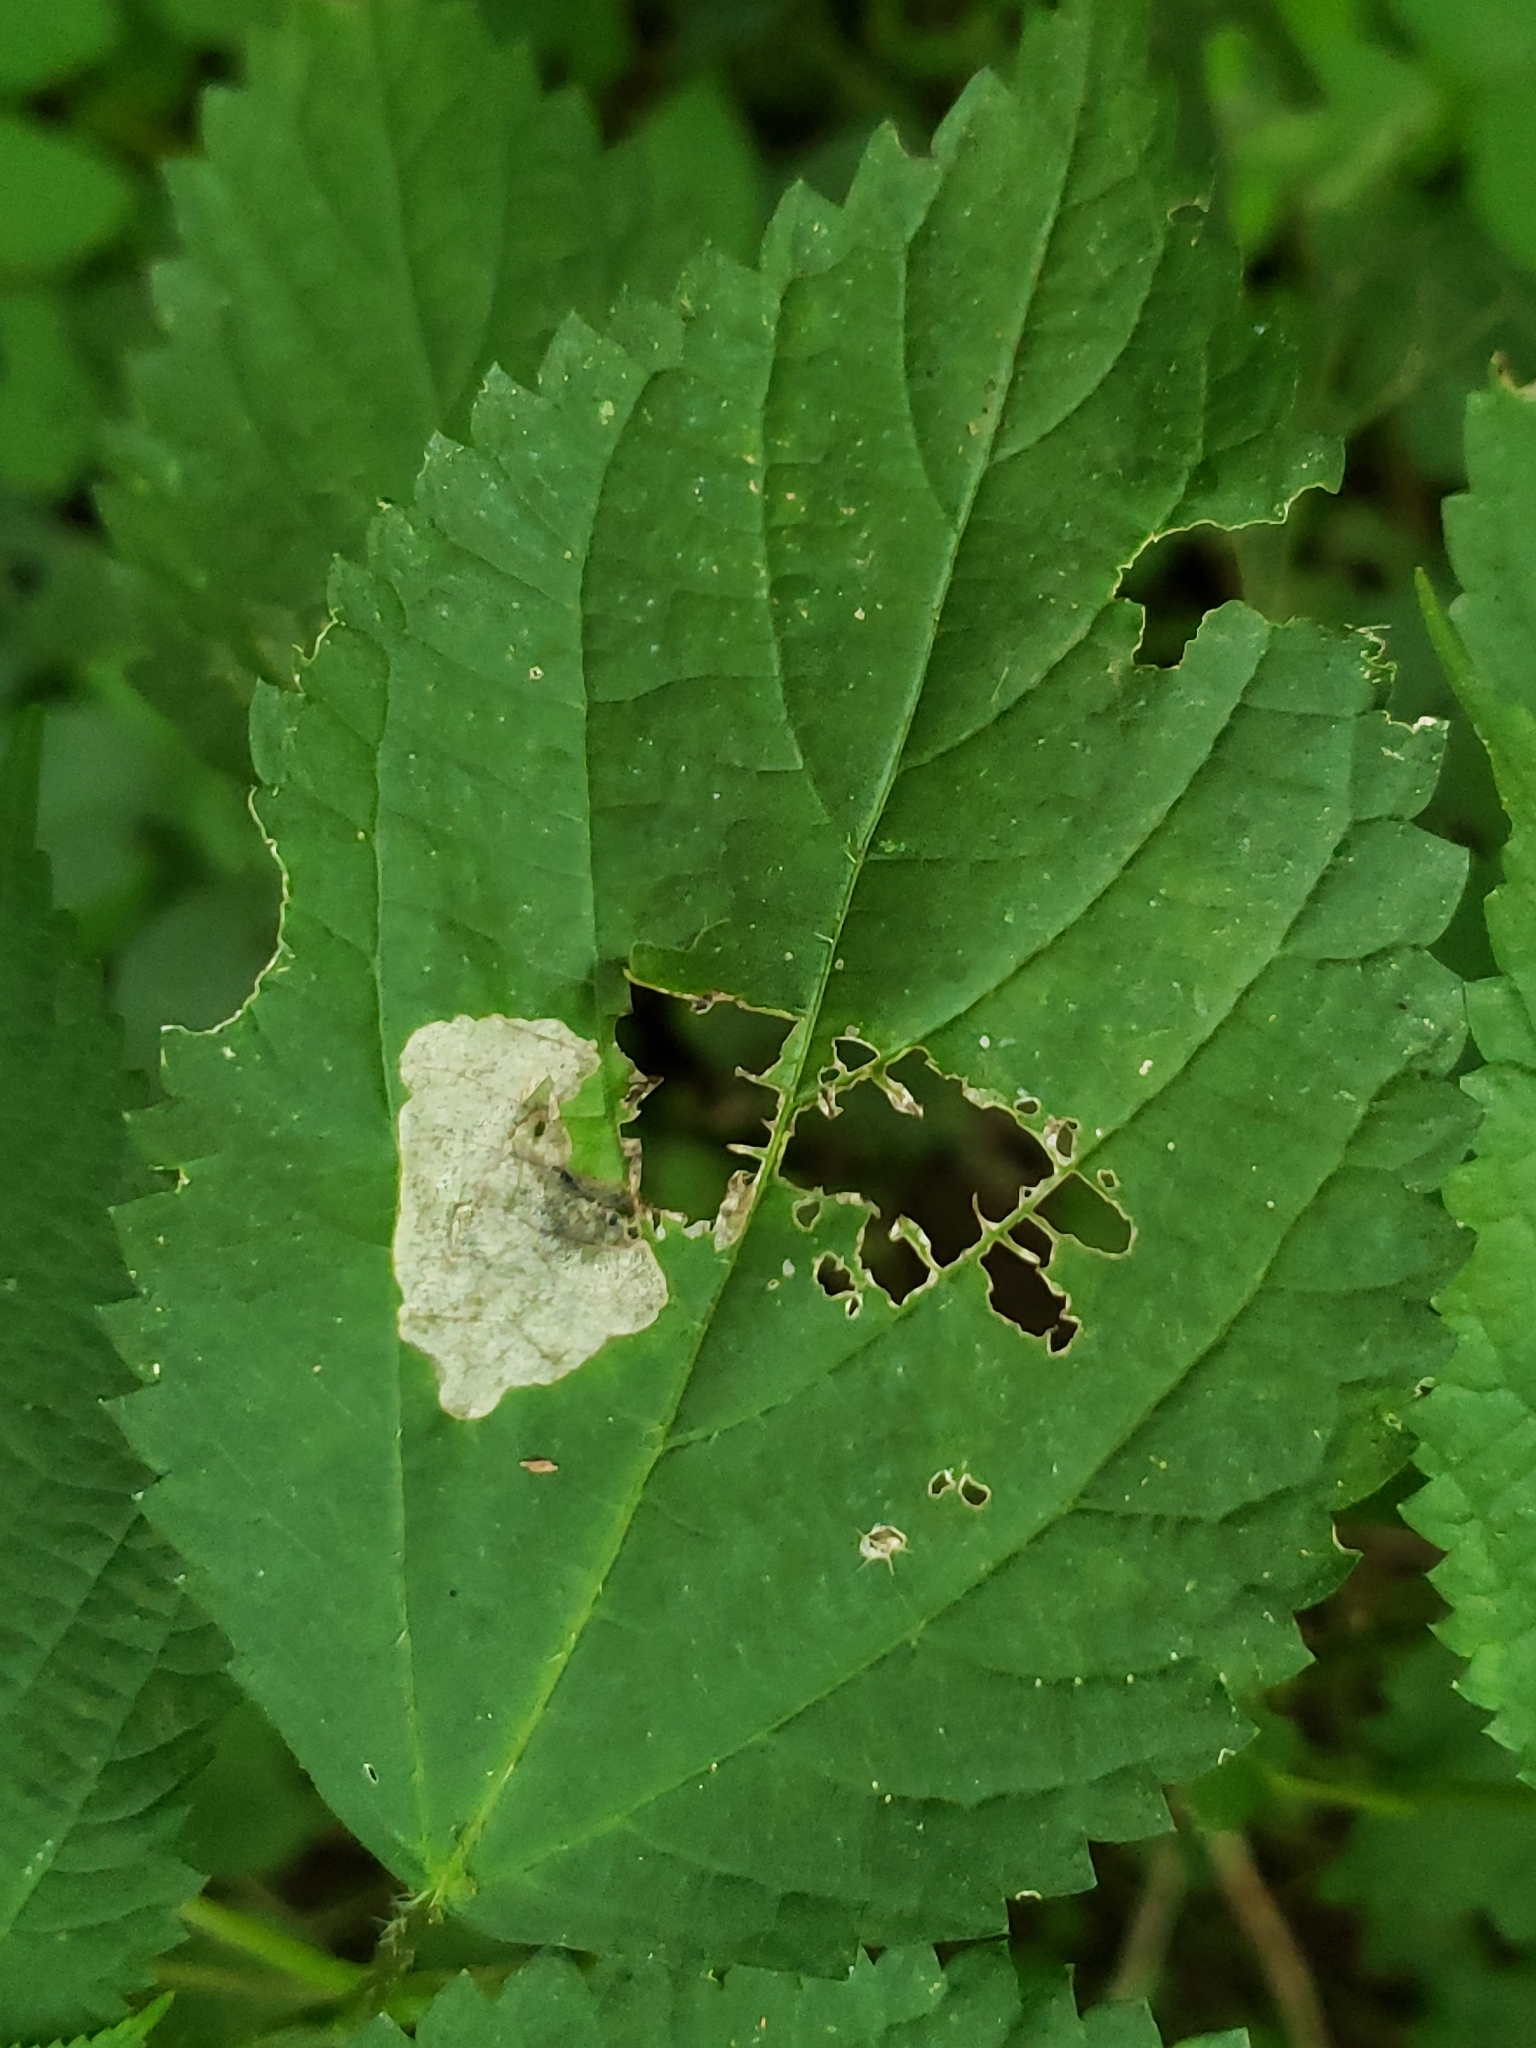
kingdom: Animalia
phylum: Arthropoda
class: Insecta
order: Coleoptera
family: Chrysomelidae
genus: Sumitrosis
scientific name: Sumitrosis rosea
